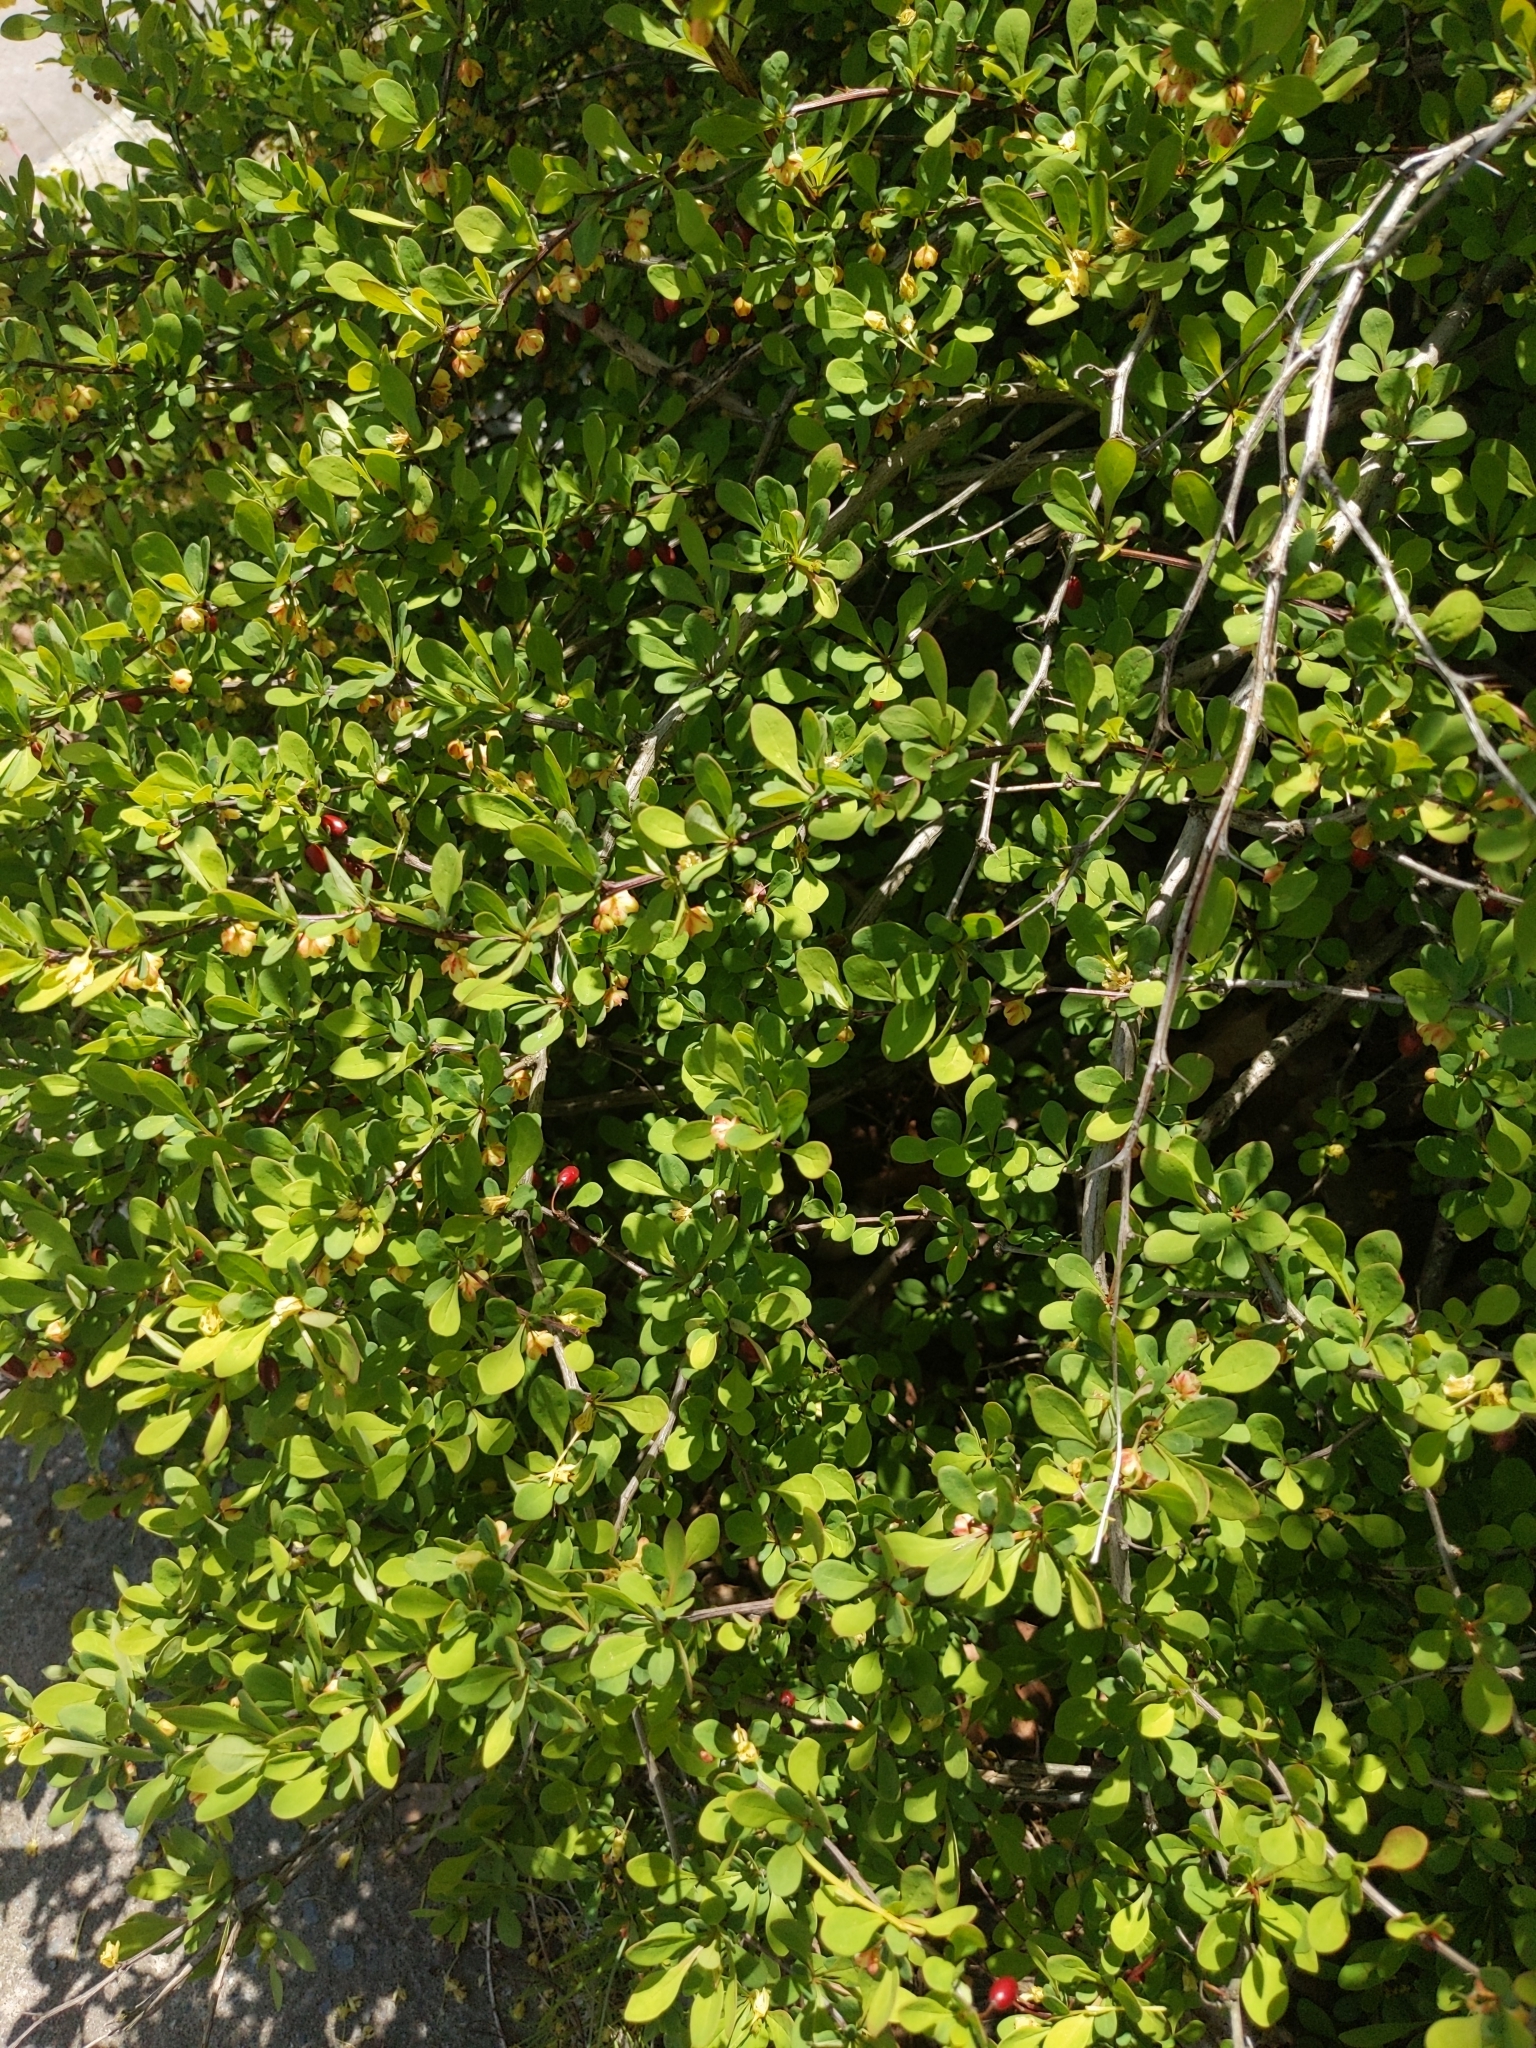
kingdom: Plantae
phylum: Tracheophyta
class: Magnoliopsida
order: Ranunculales
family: Berberidaceae
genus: Berberis
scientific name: Berberis thunbergii
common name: Japanese barberry
